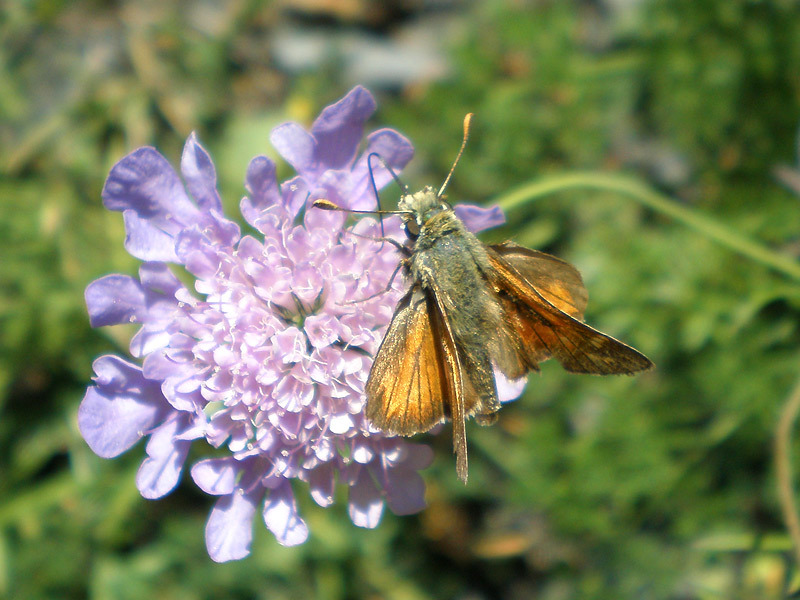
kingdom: Animalia
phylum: Arthropoda
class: Insecta
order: Lepidoptera
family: Hesperiidae
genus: Hesperia
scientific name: Hesperia comma
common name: Common branded skipper
